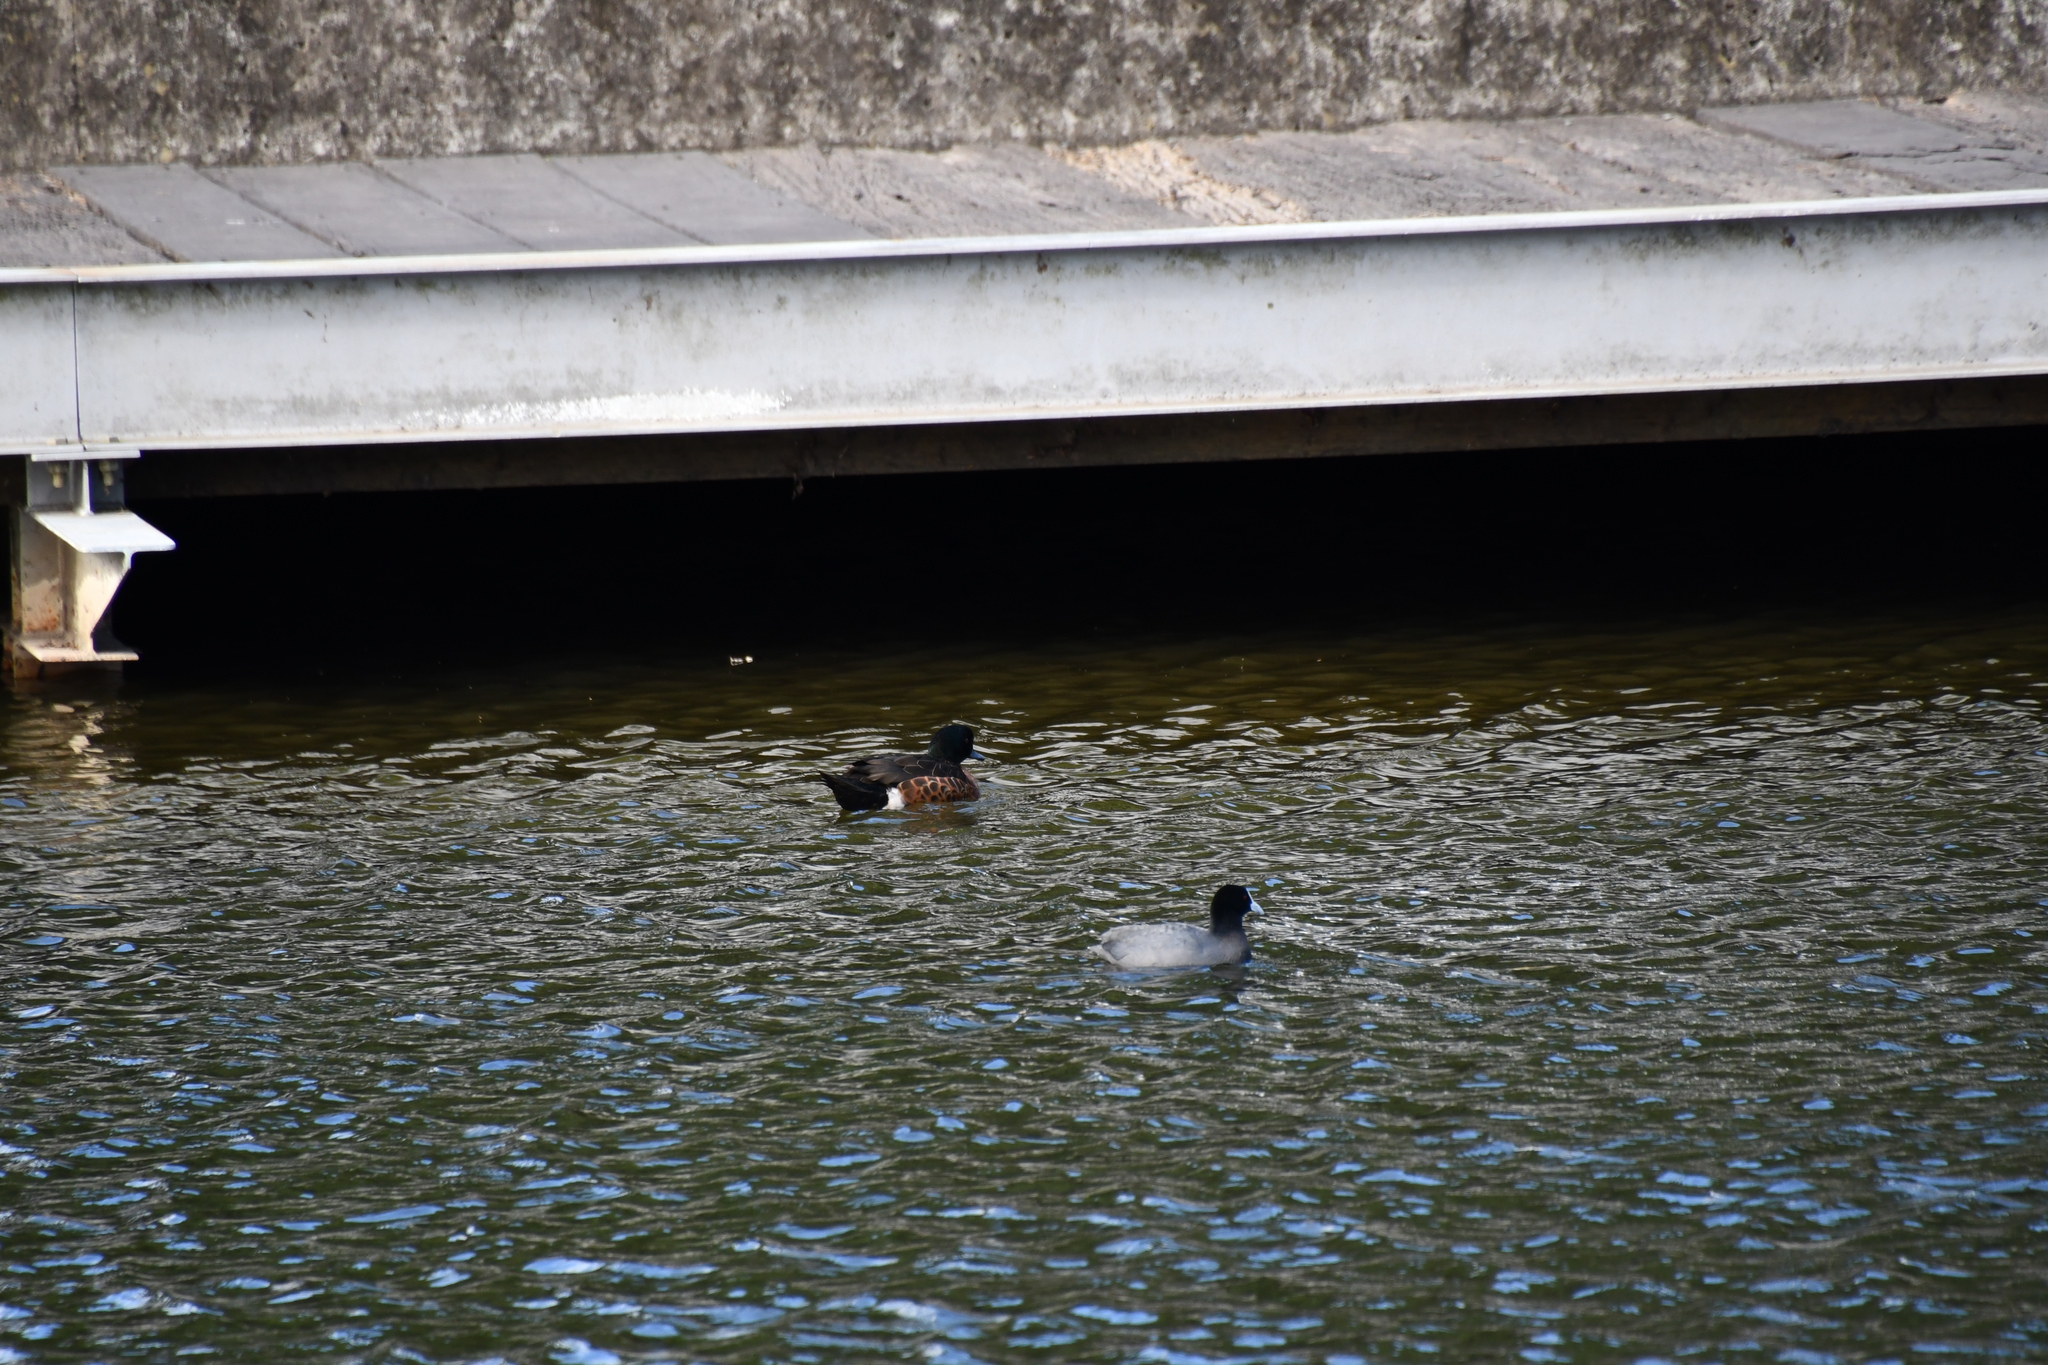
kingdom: Animalia
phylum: Chordata
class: Aves
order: Anseriformes
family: Anatidae
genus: Anas
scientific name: Anas castanea
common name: Chestnut teal
